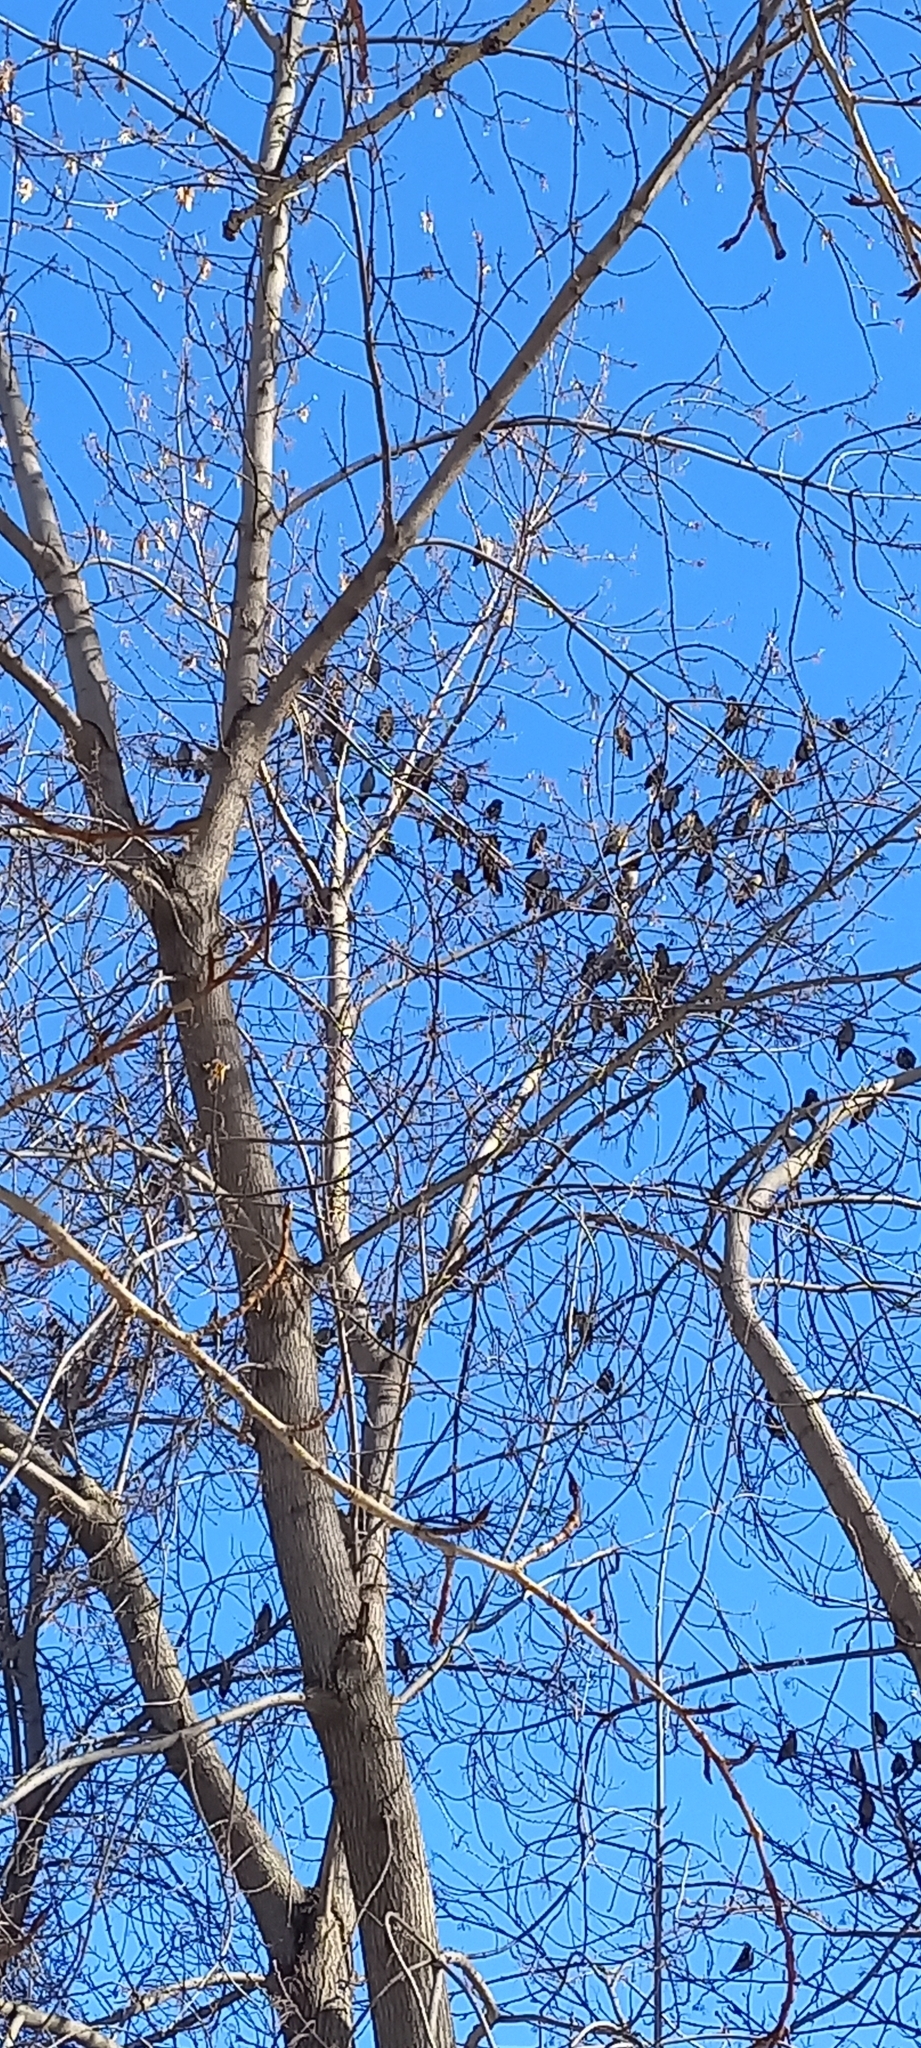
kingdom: Animalia
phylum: Chordata
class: Aves
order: Passeriformes
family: Bombycillidae
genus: Bombycilla
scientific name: Bombycilla garrulus
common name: Bohemian waxwing
